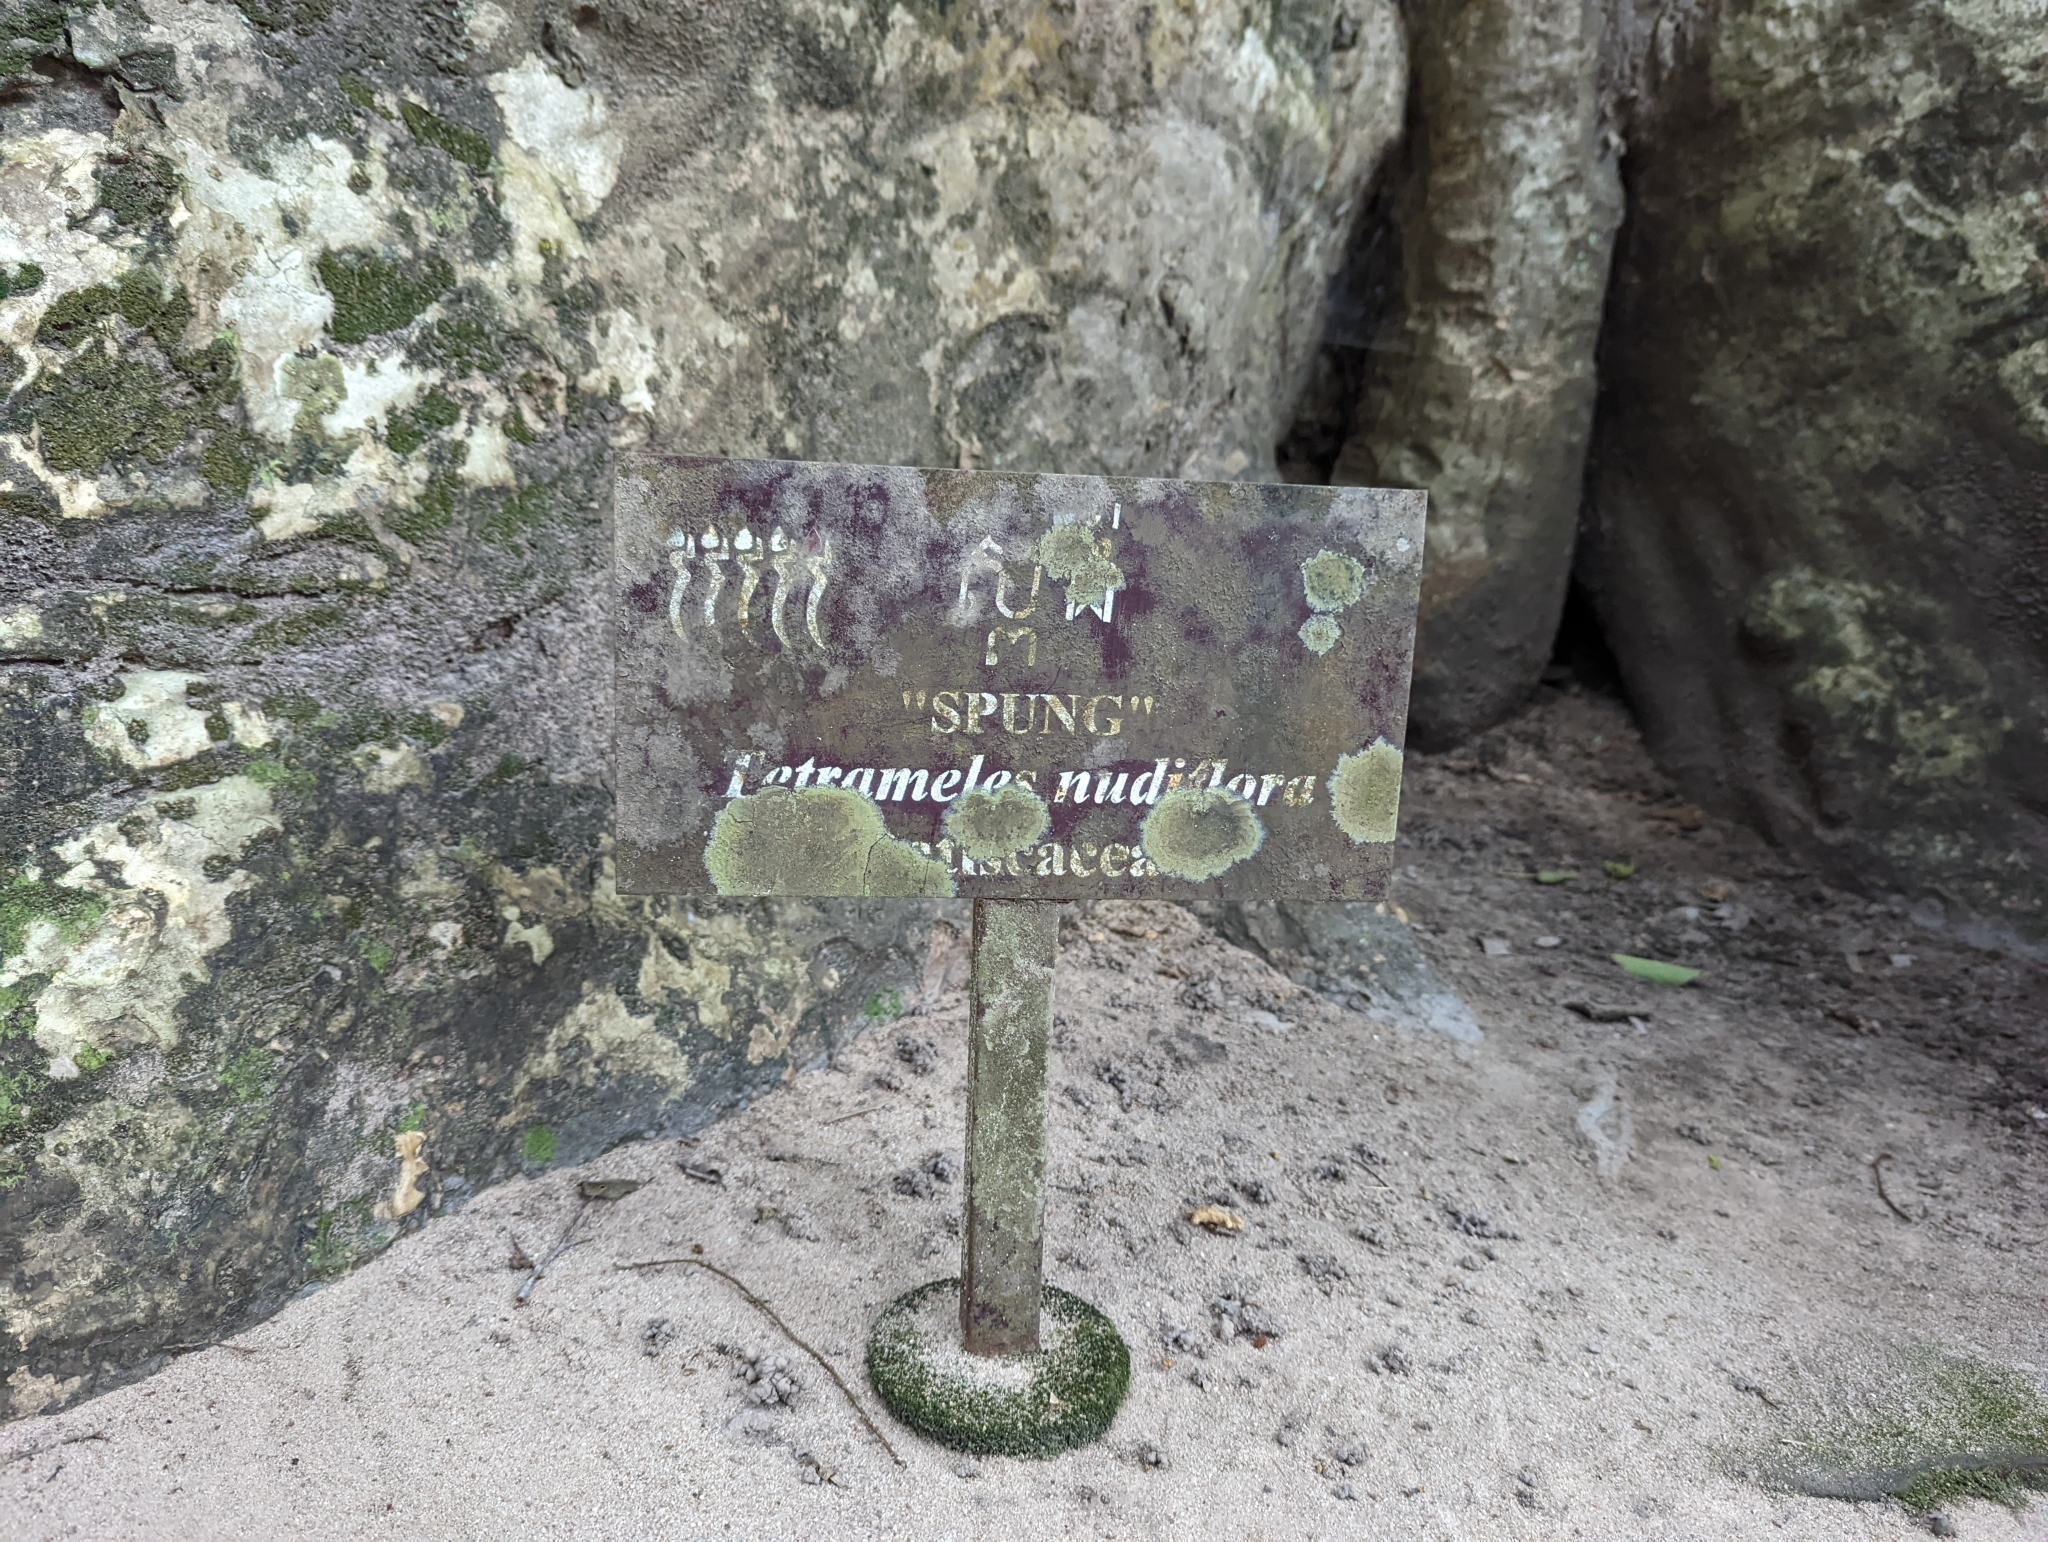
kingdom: Plantae
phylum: Tracheophyta
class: Magnoliopsida
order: Cucurbitales
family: Tetramelaceae
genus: Tetrameles
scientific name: Tetrameles nudiflora
